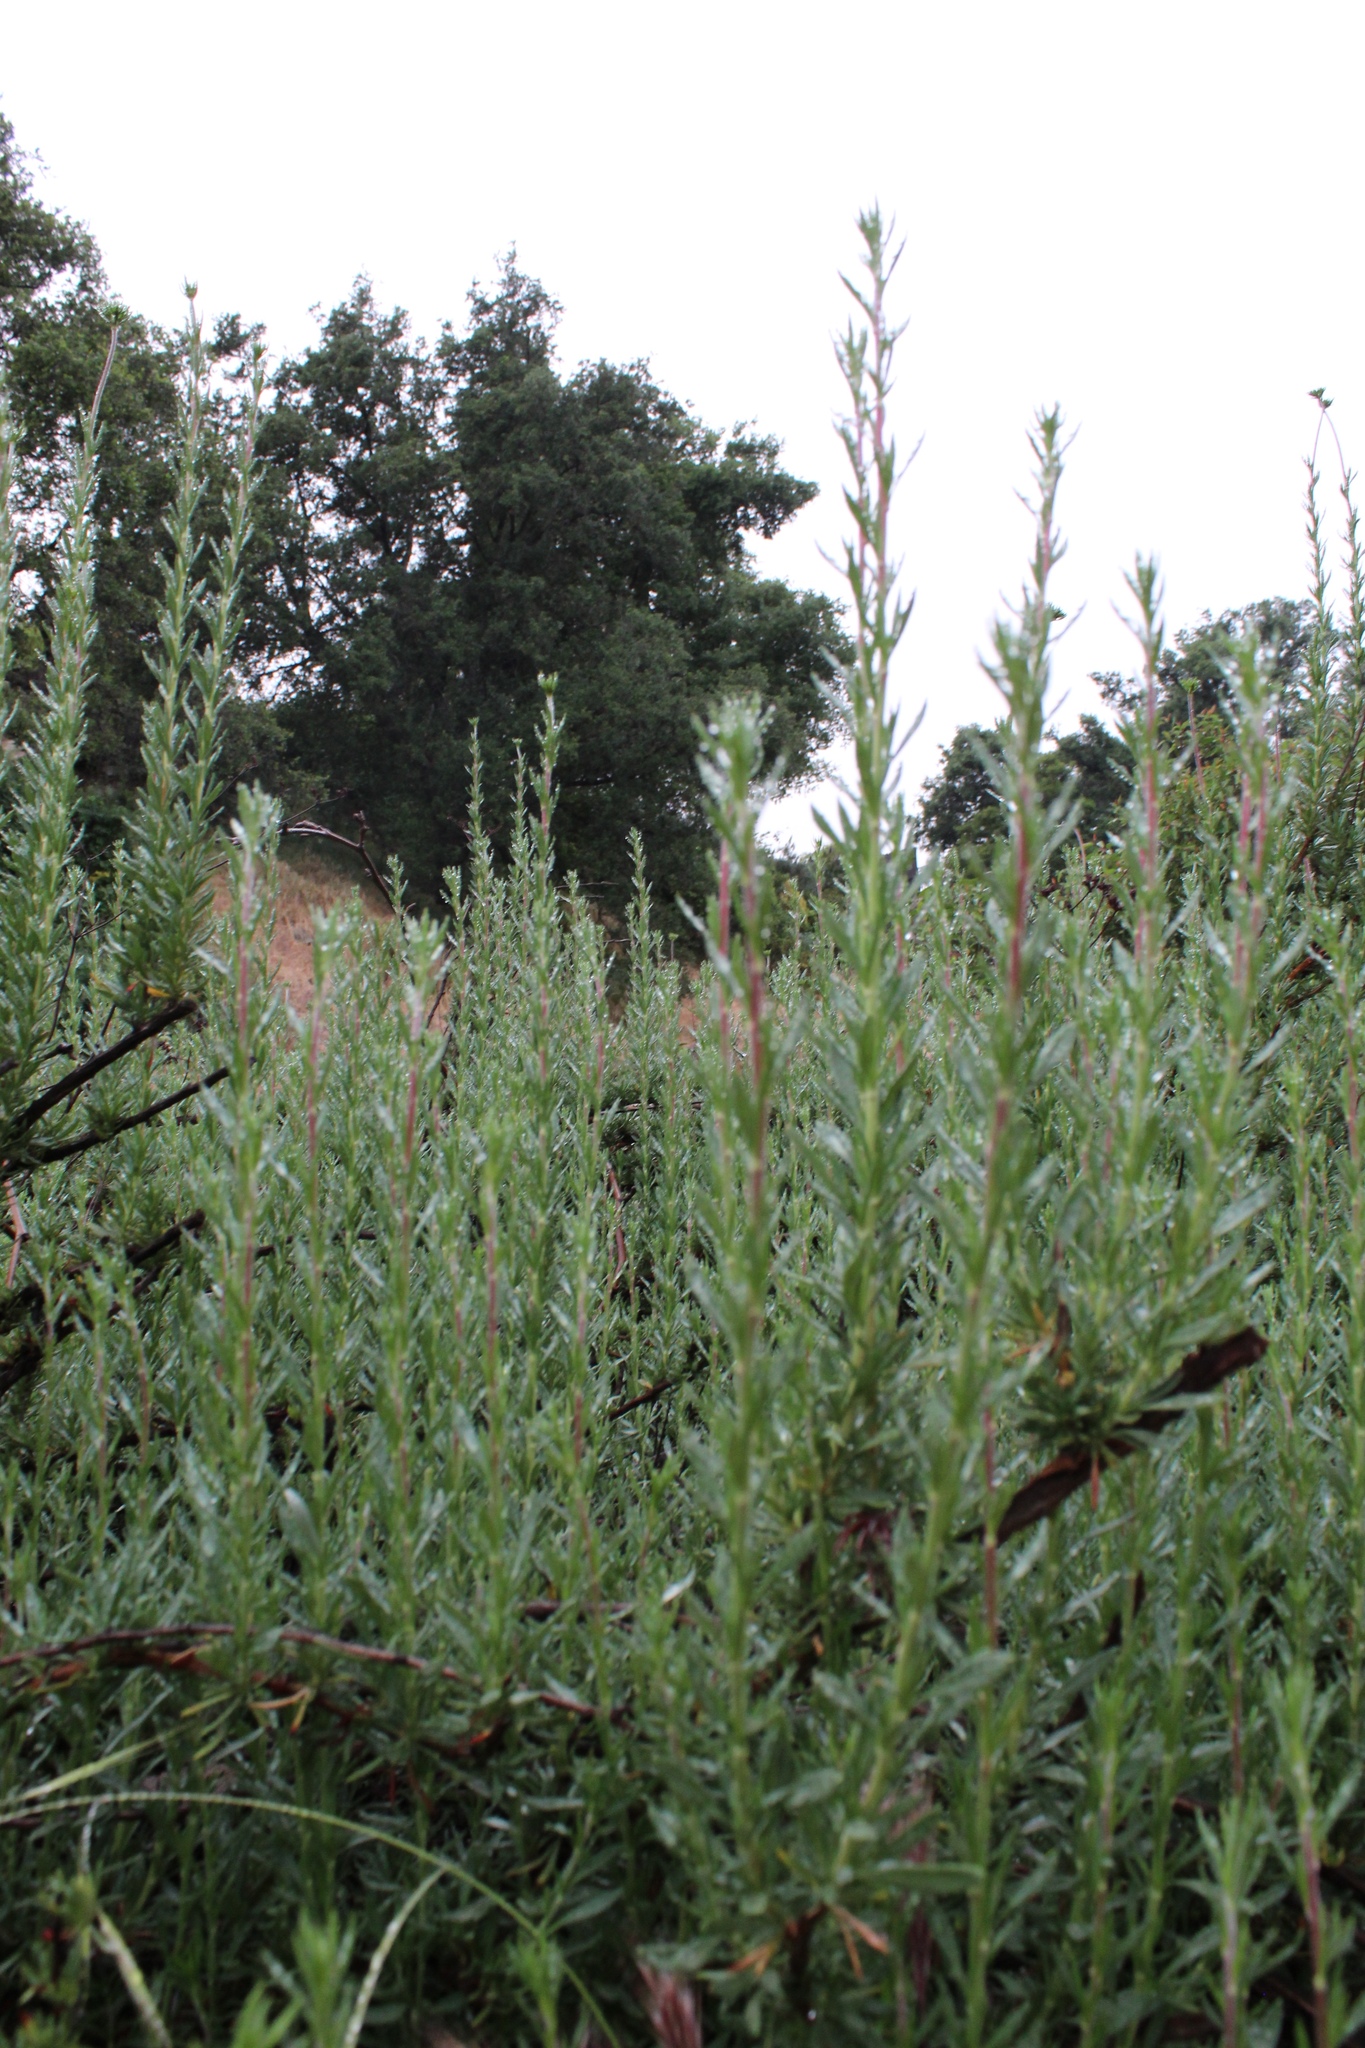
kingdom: Plantae
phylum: Tracheophyta
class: Magnoliopsida
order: Caryophyllales
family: Polygonaceae
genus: Eriogonum
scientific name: Eriogonum fasciculatum
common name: California wild buckwheat
